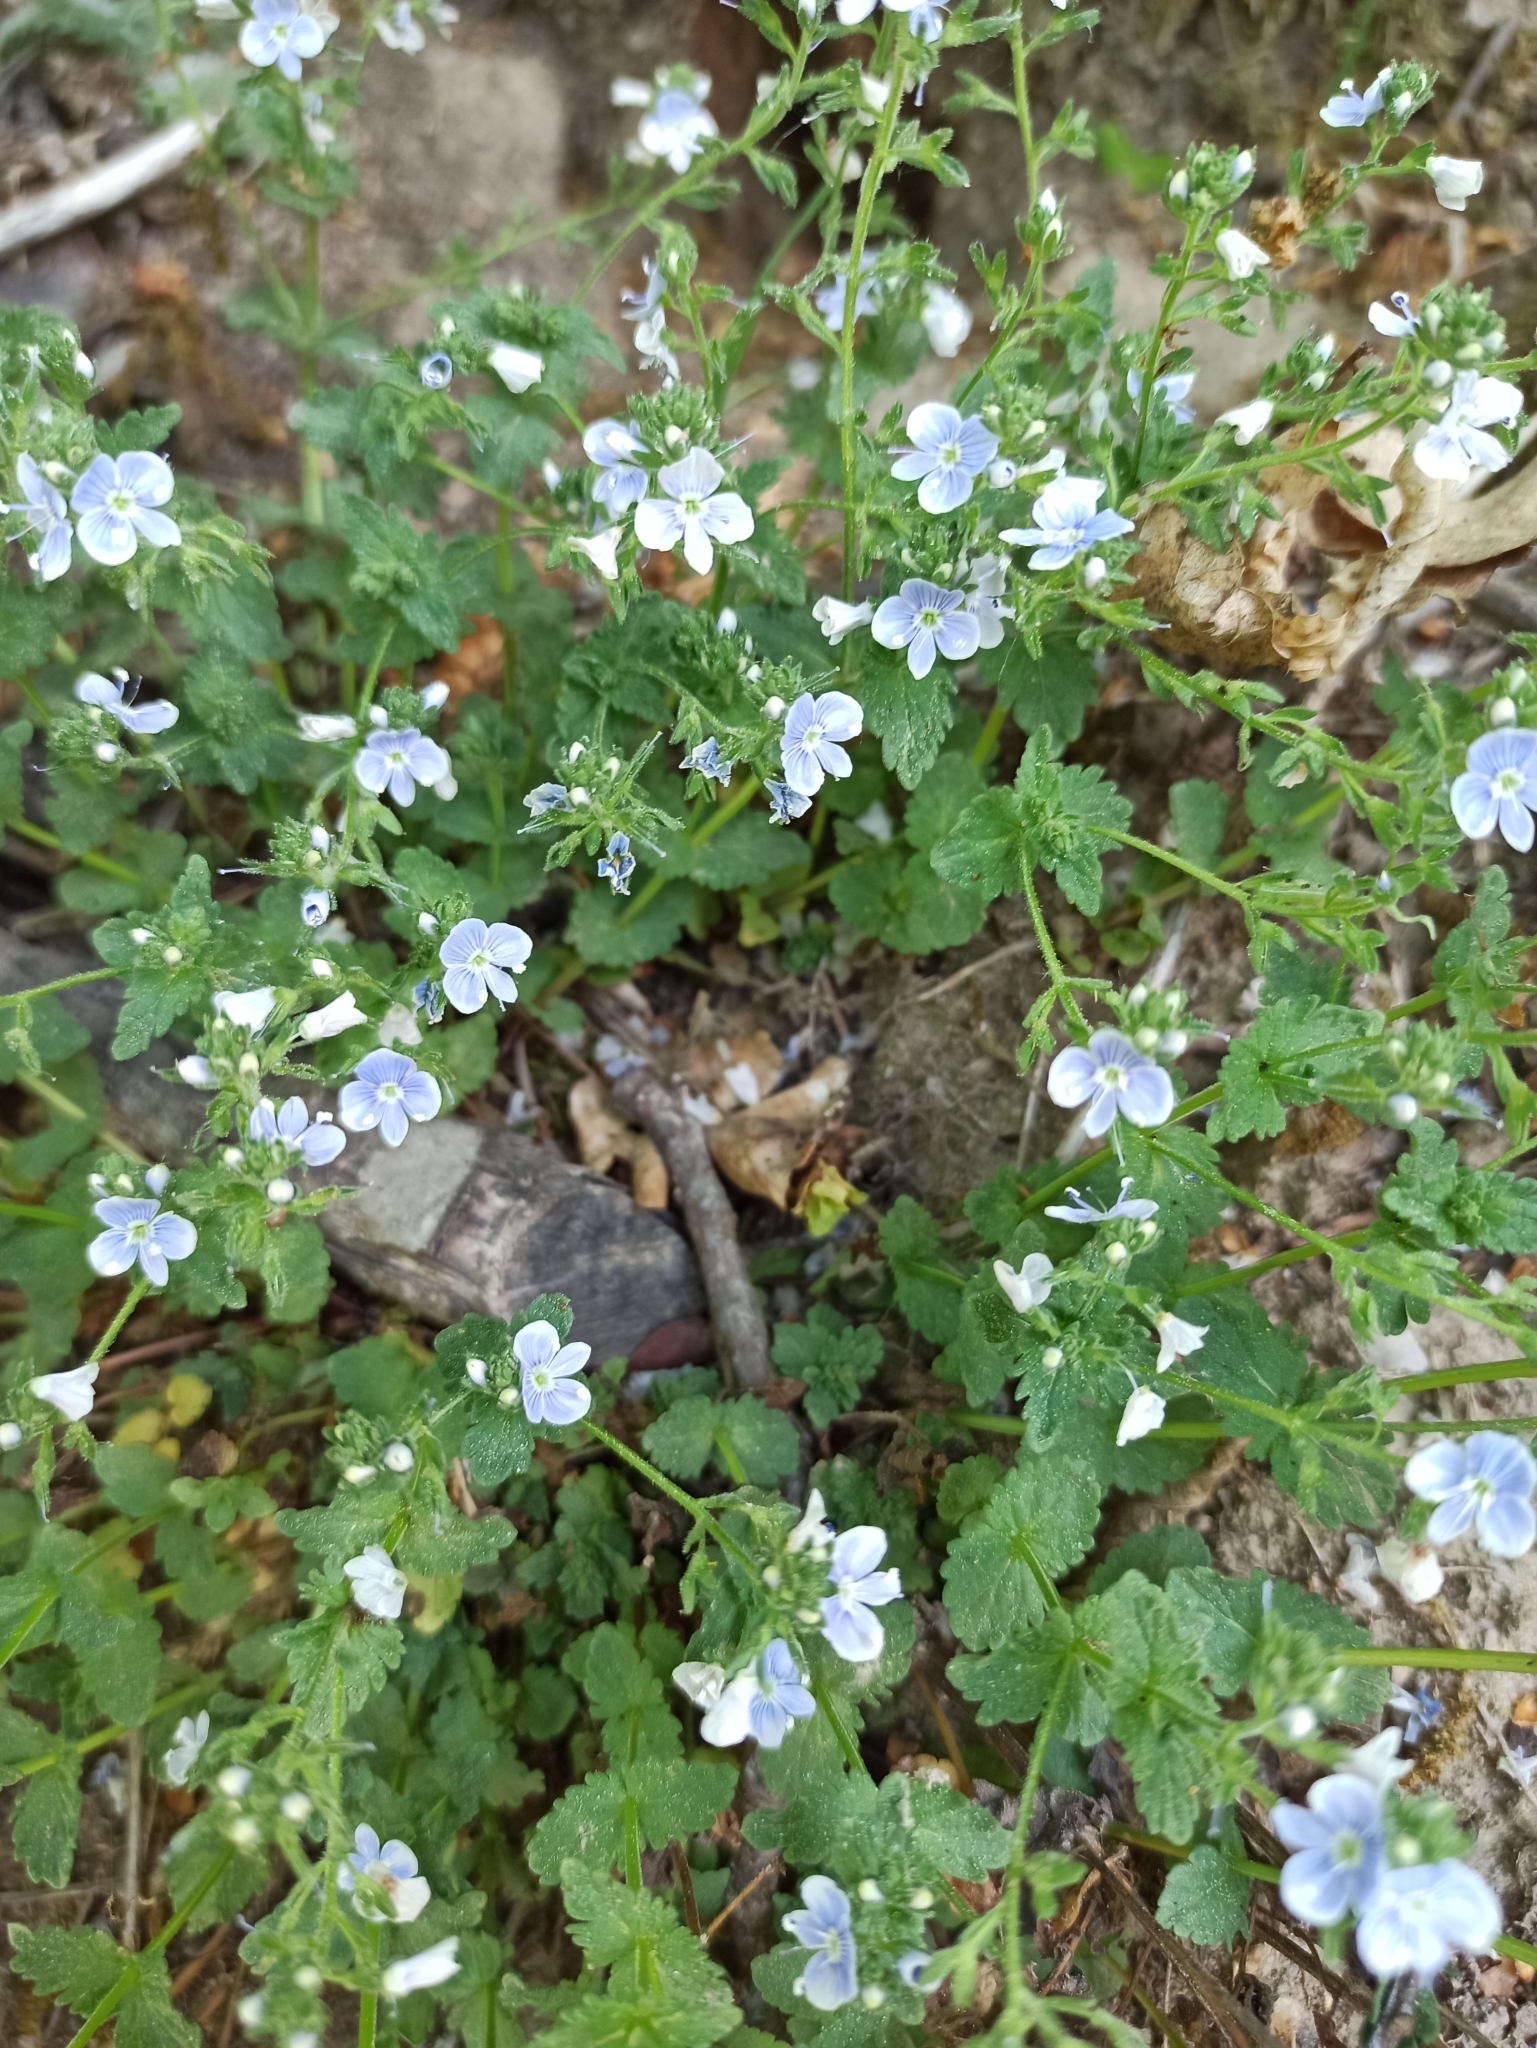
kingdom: Plantae
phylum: Tracheophyta
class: Magnoliopsida
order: Lamiales
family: Plantaginaceae
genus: Veronica
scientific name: Veronica chamaedrys
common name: Germander speedwell
